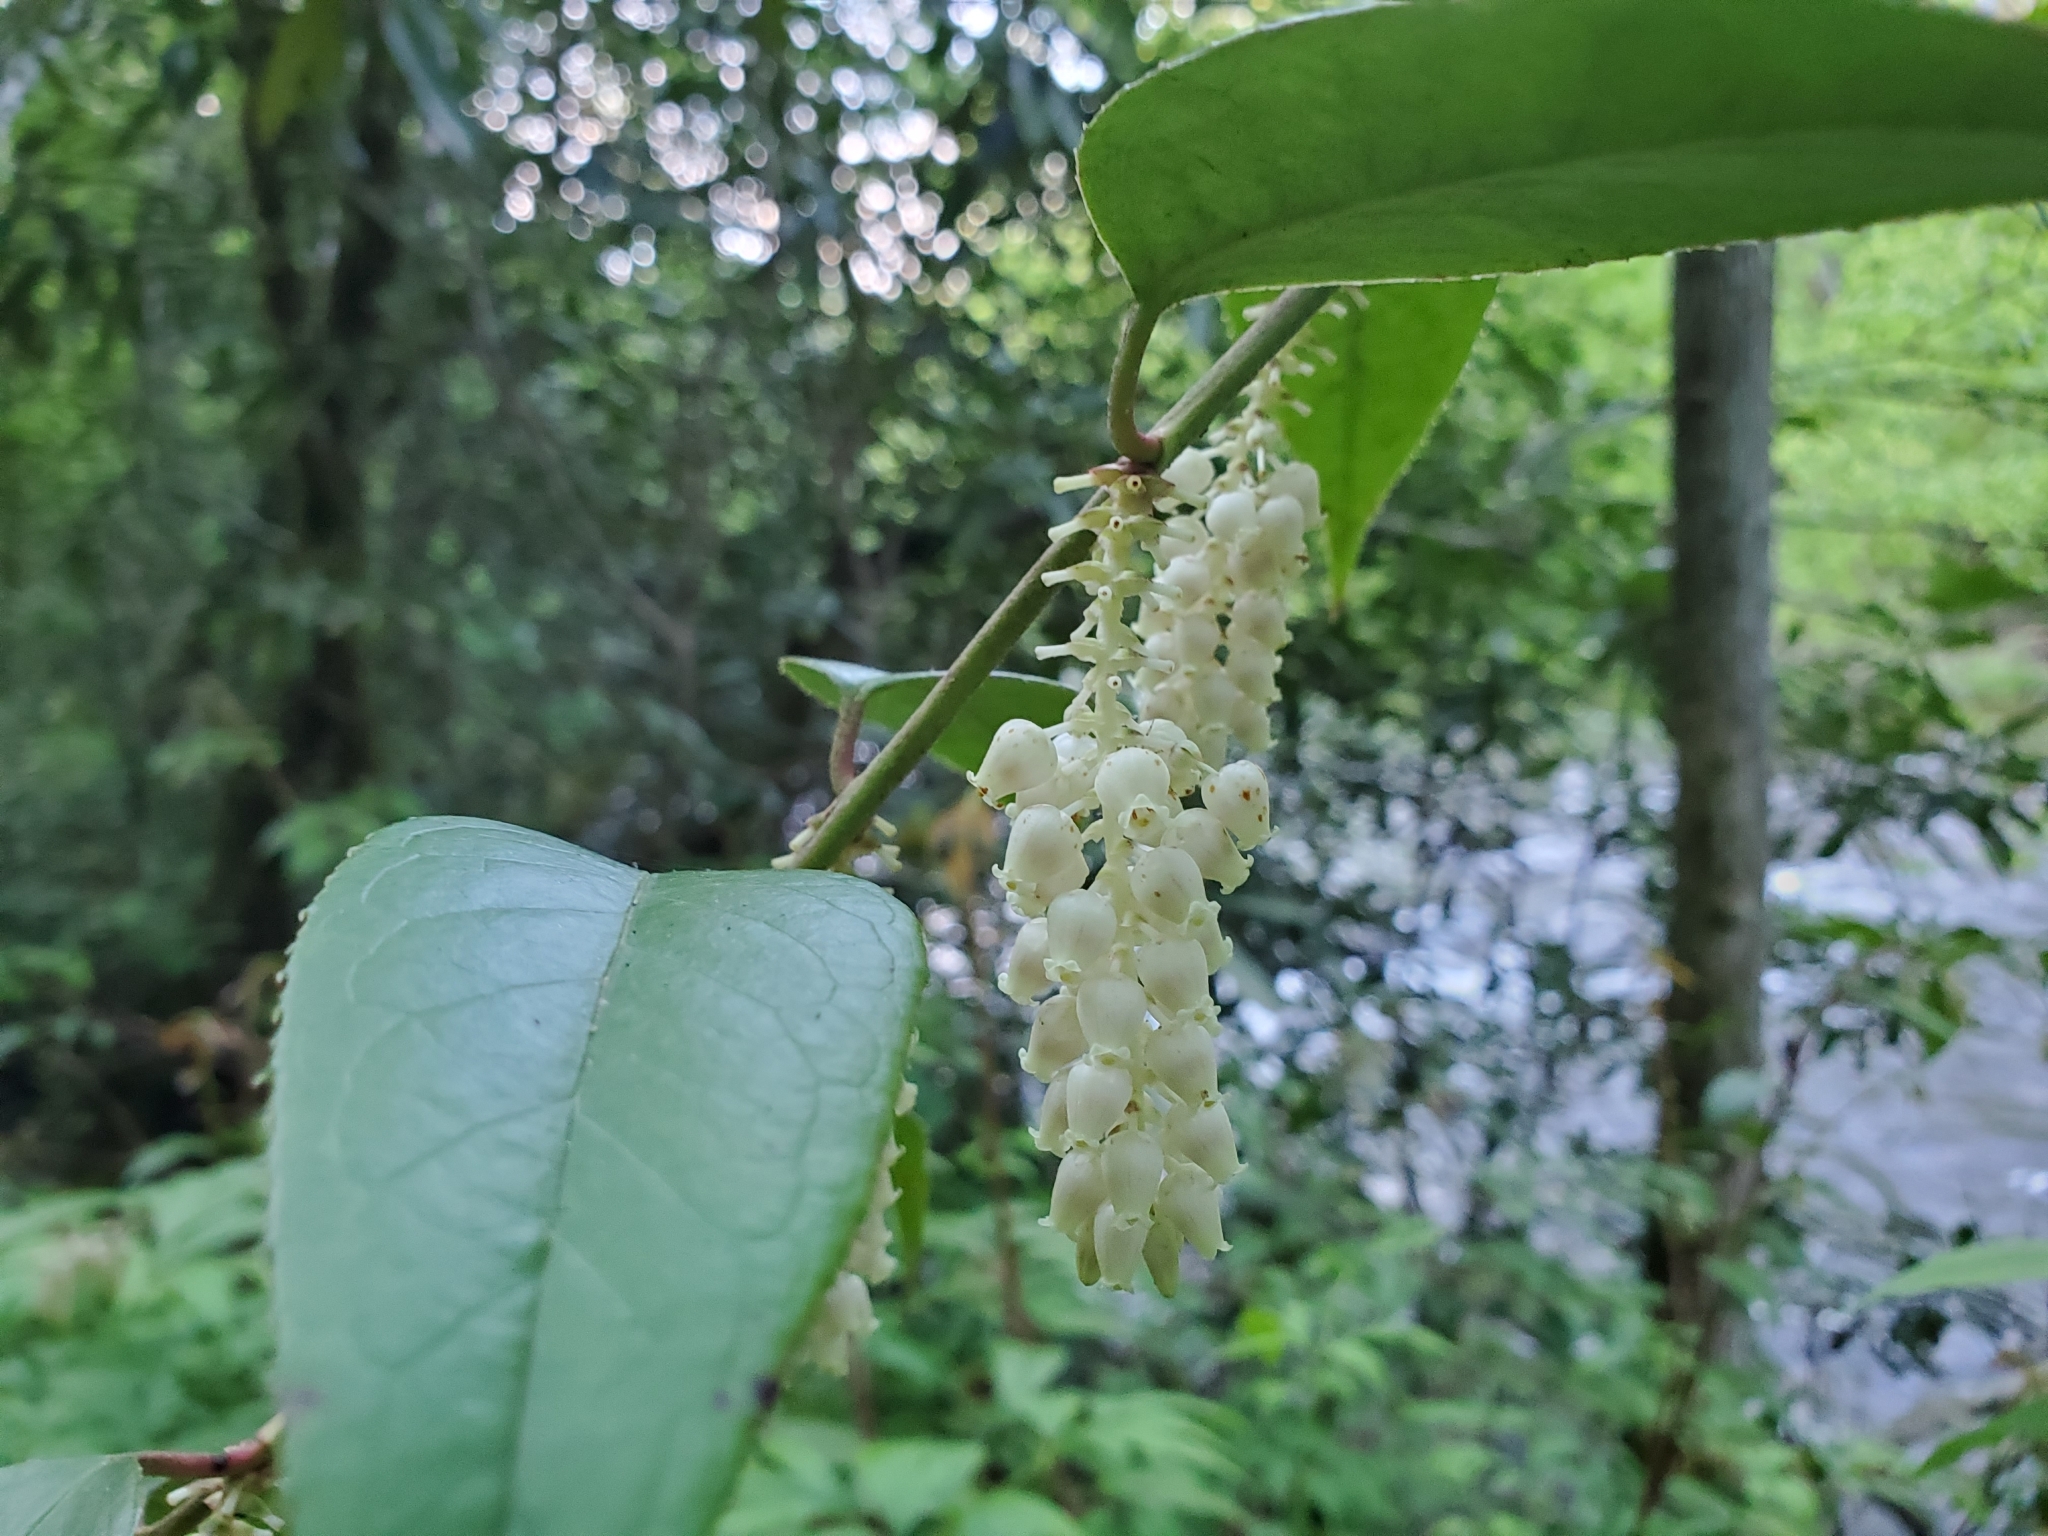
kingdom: Plantae
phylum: Tracheophyta
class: Magnoliopsida
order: Ericales
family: Ericaceae
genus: Leucothoe
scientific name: Leucothoe fontanesiana
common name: Fetterbush
